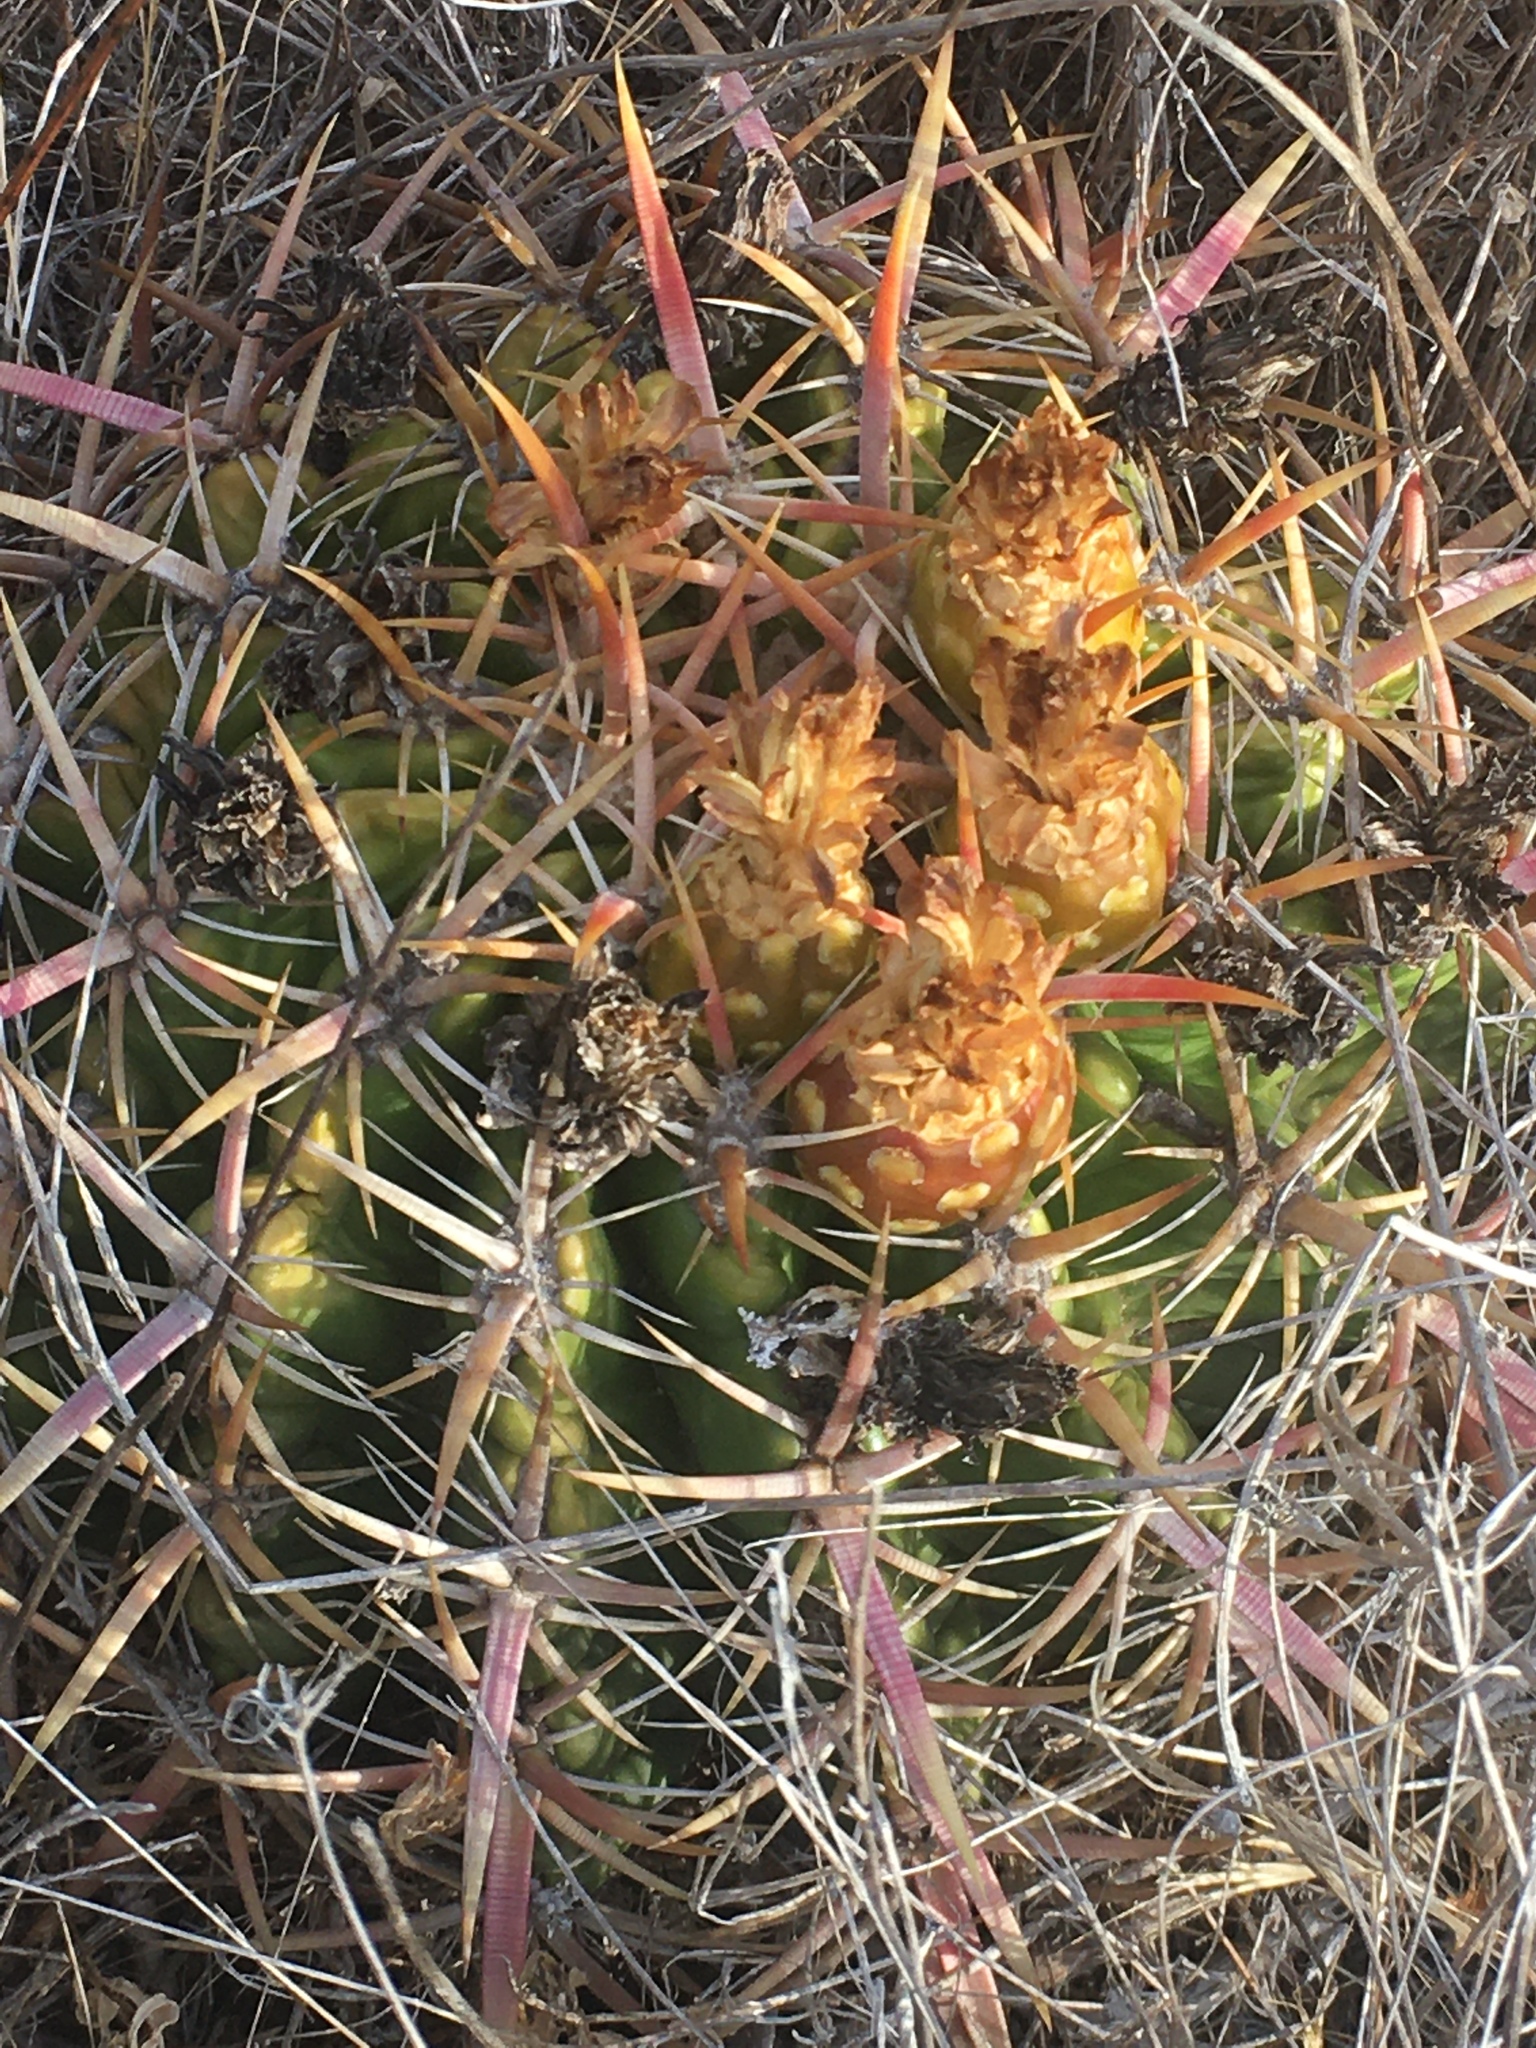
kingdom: Plantae
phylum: Tracheophyta
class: Magnoliopsida
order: Caryophyllales
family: Cactaceae
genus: Ferocactus
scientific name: Ferocactus viridescens
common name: San diego barrel cactus
